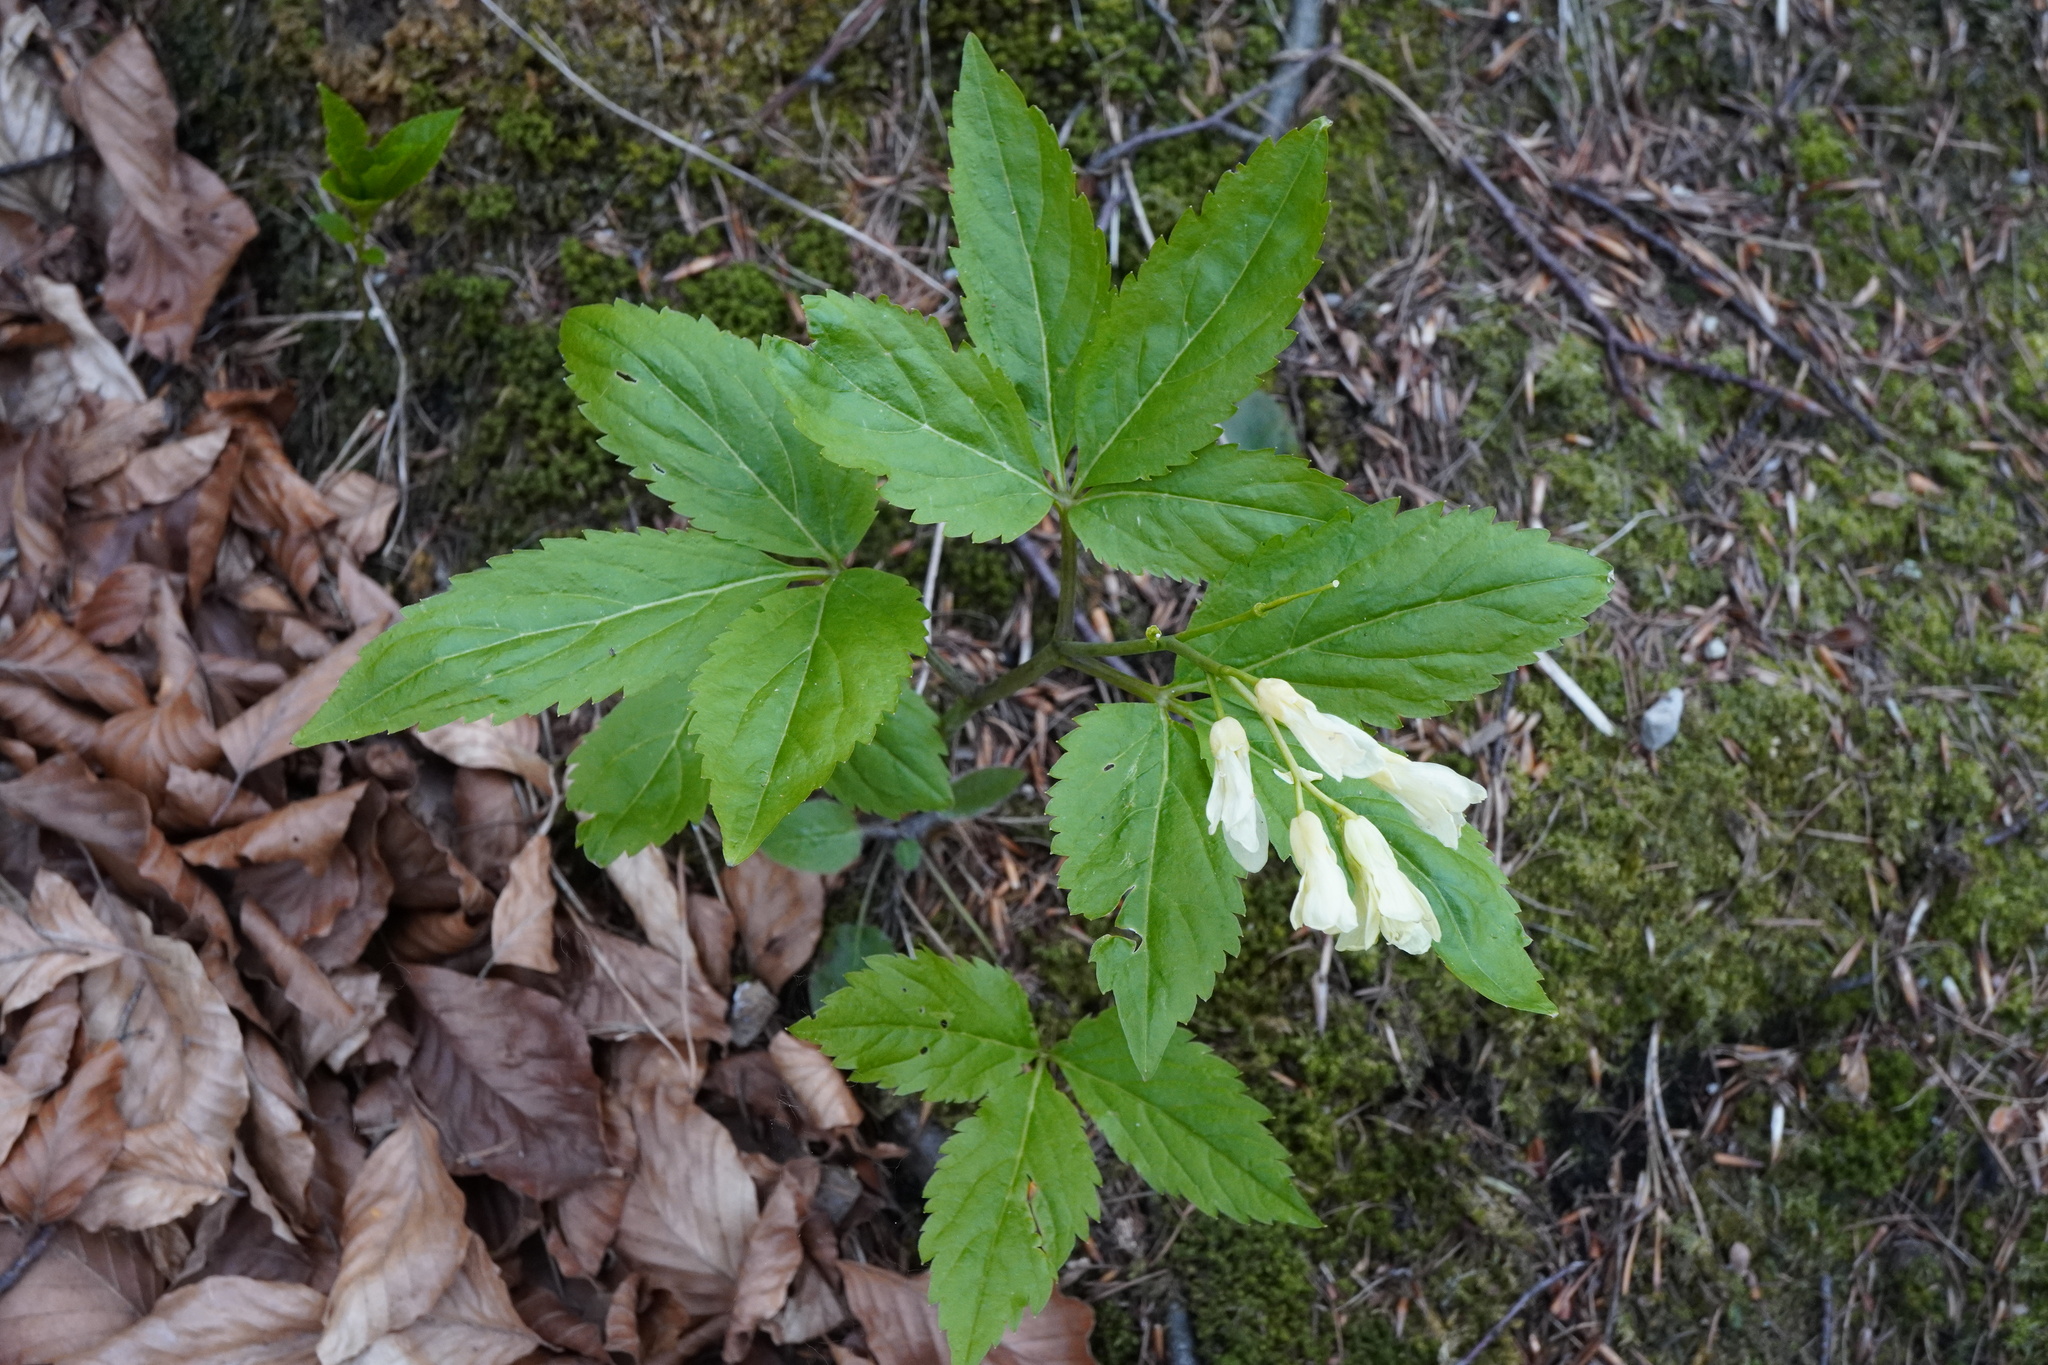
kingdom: Plantae
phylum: Tracheophyta
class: Magnoliopsida
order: Brassicales
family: Brassicaceae
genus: Cardamine
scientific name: Cardamine enneaphyllos
